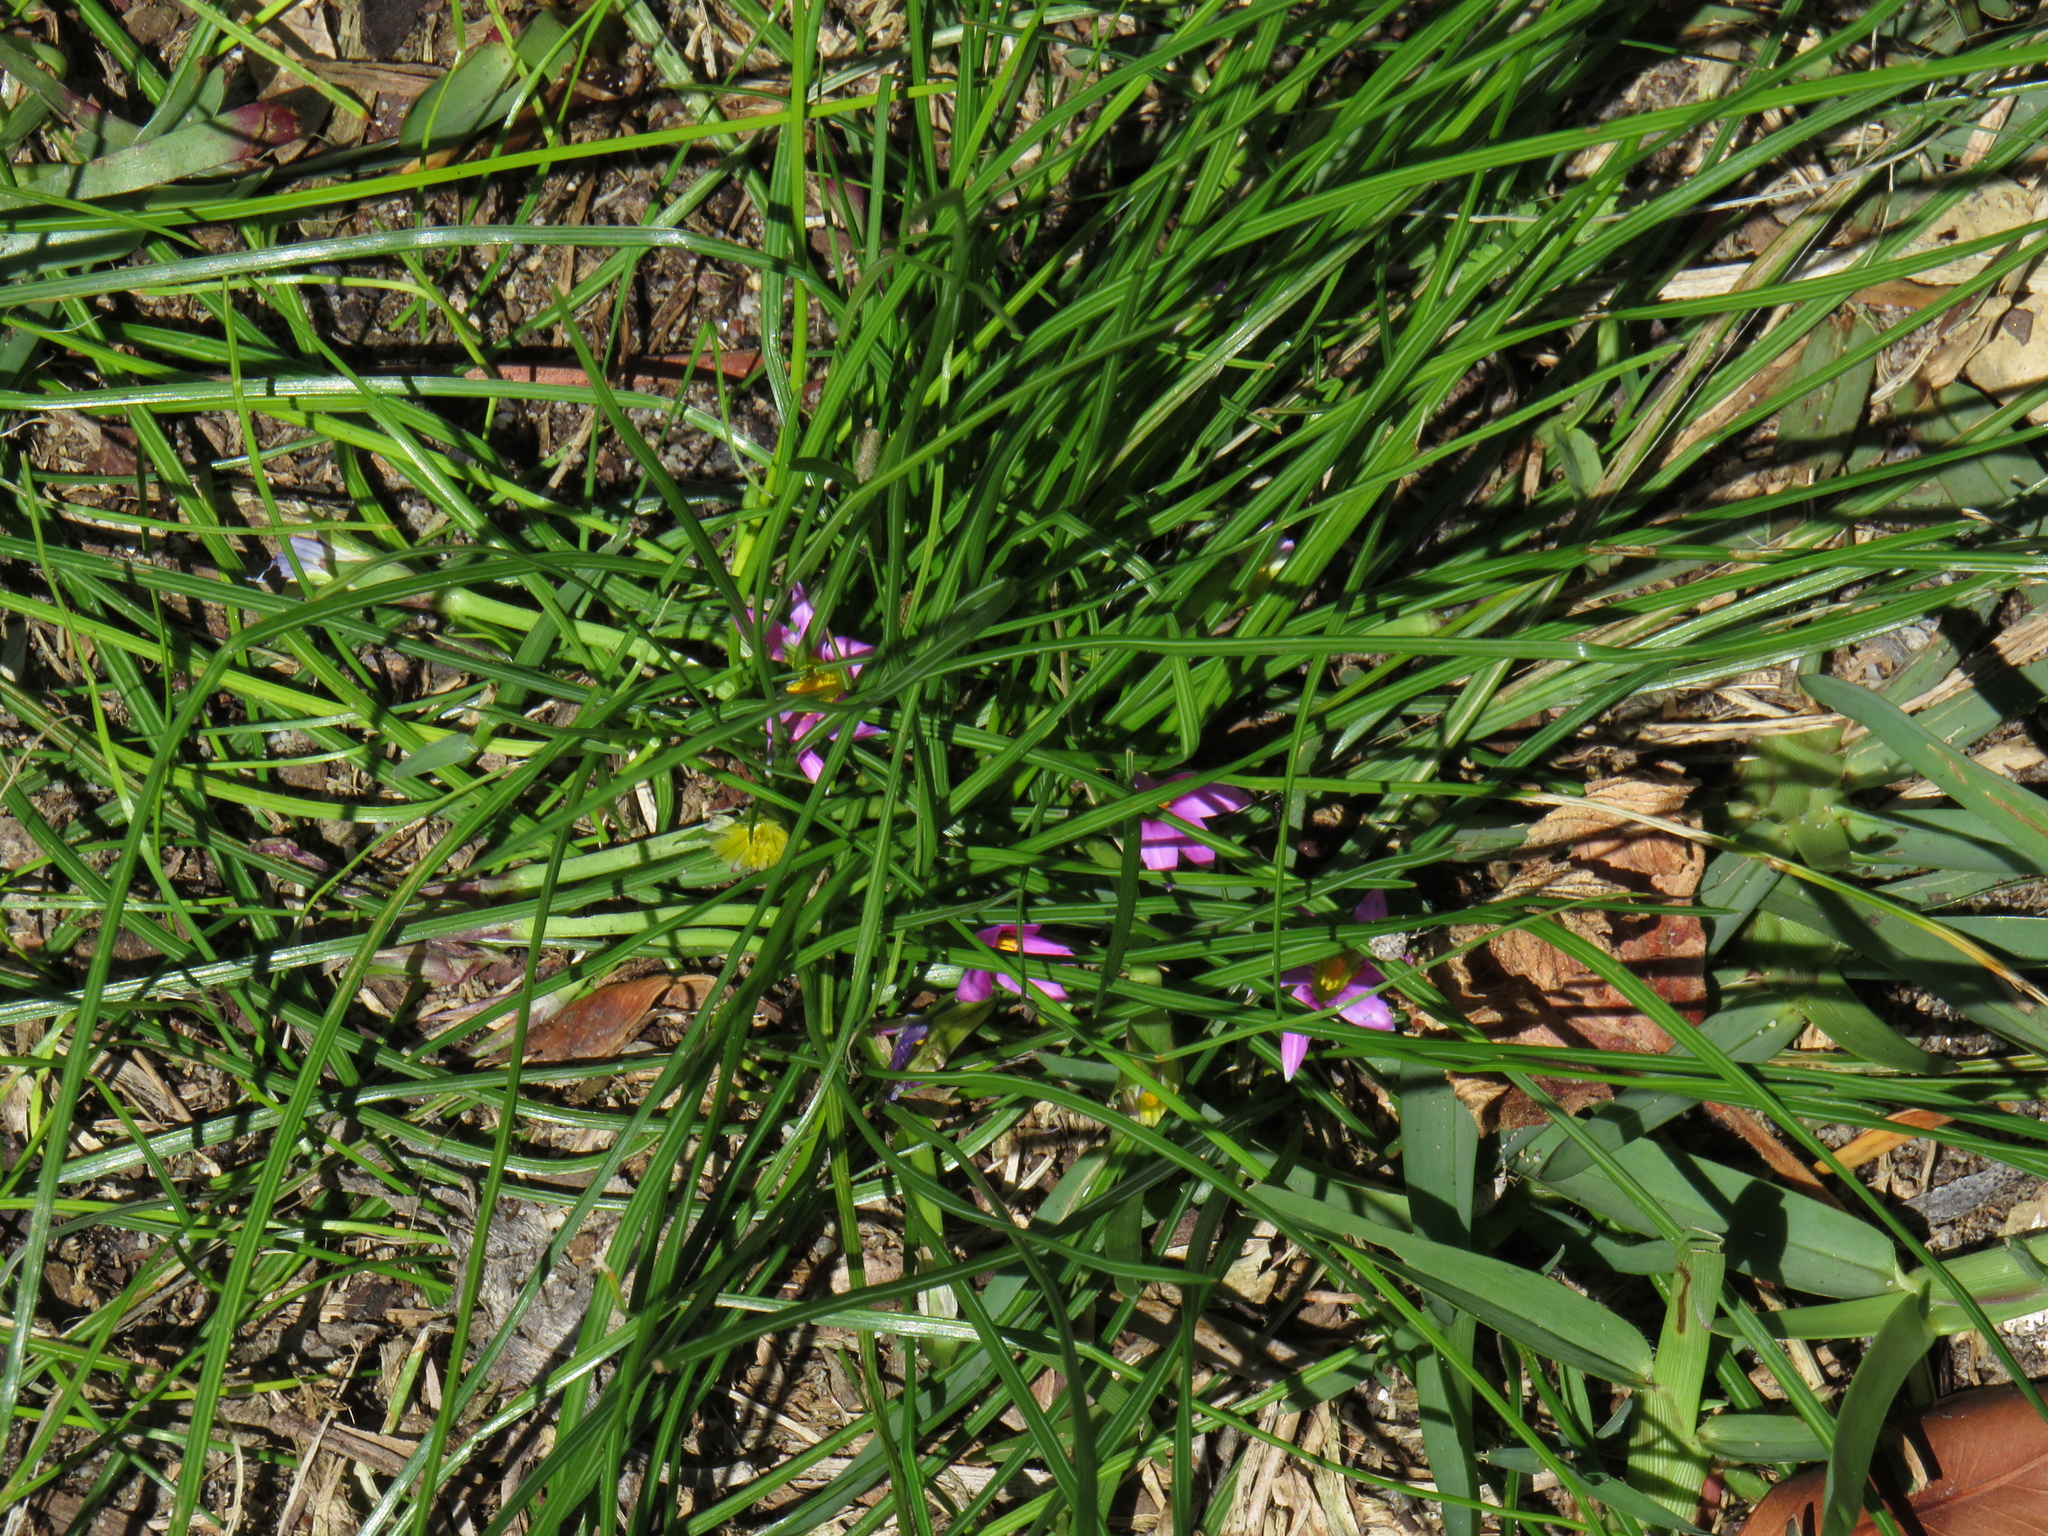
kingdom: Plantae
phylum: Tracheophyta
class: Liliopsida
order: Asparagales
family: Iridaceae
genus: Romulea
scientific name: Romulea rosea
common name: Oniongrass
